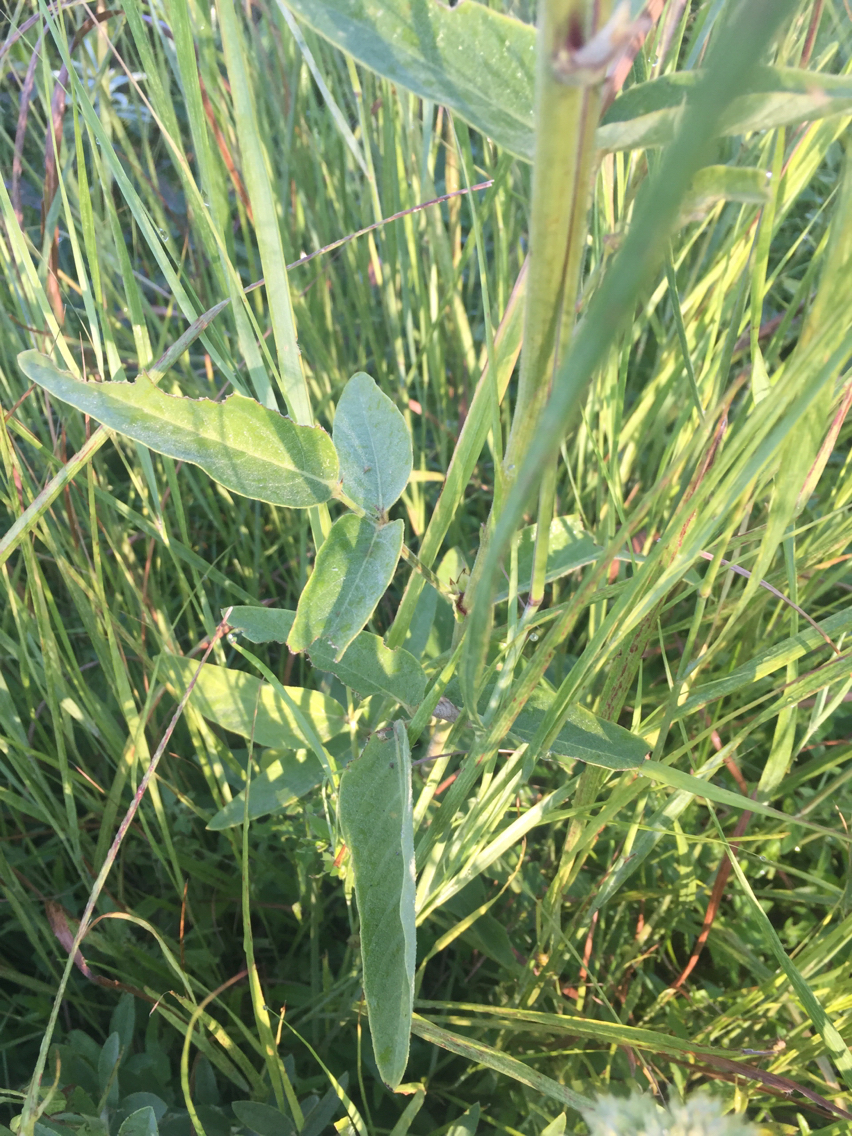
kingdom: Plantae
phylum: Tracheophyta
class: Magnoliopsida
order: Fabales
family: Fabaceae
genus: Desmodium
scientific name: Desmodium illinoense
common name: Illinois tick-clover
